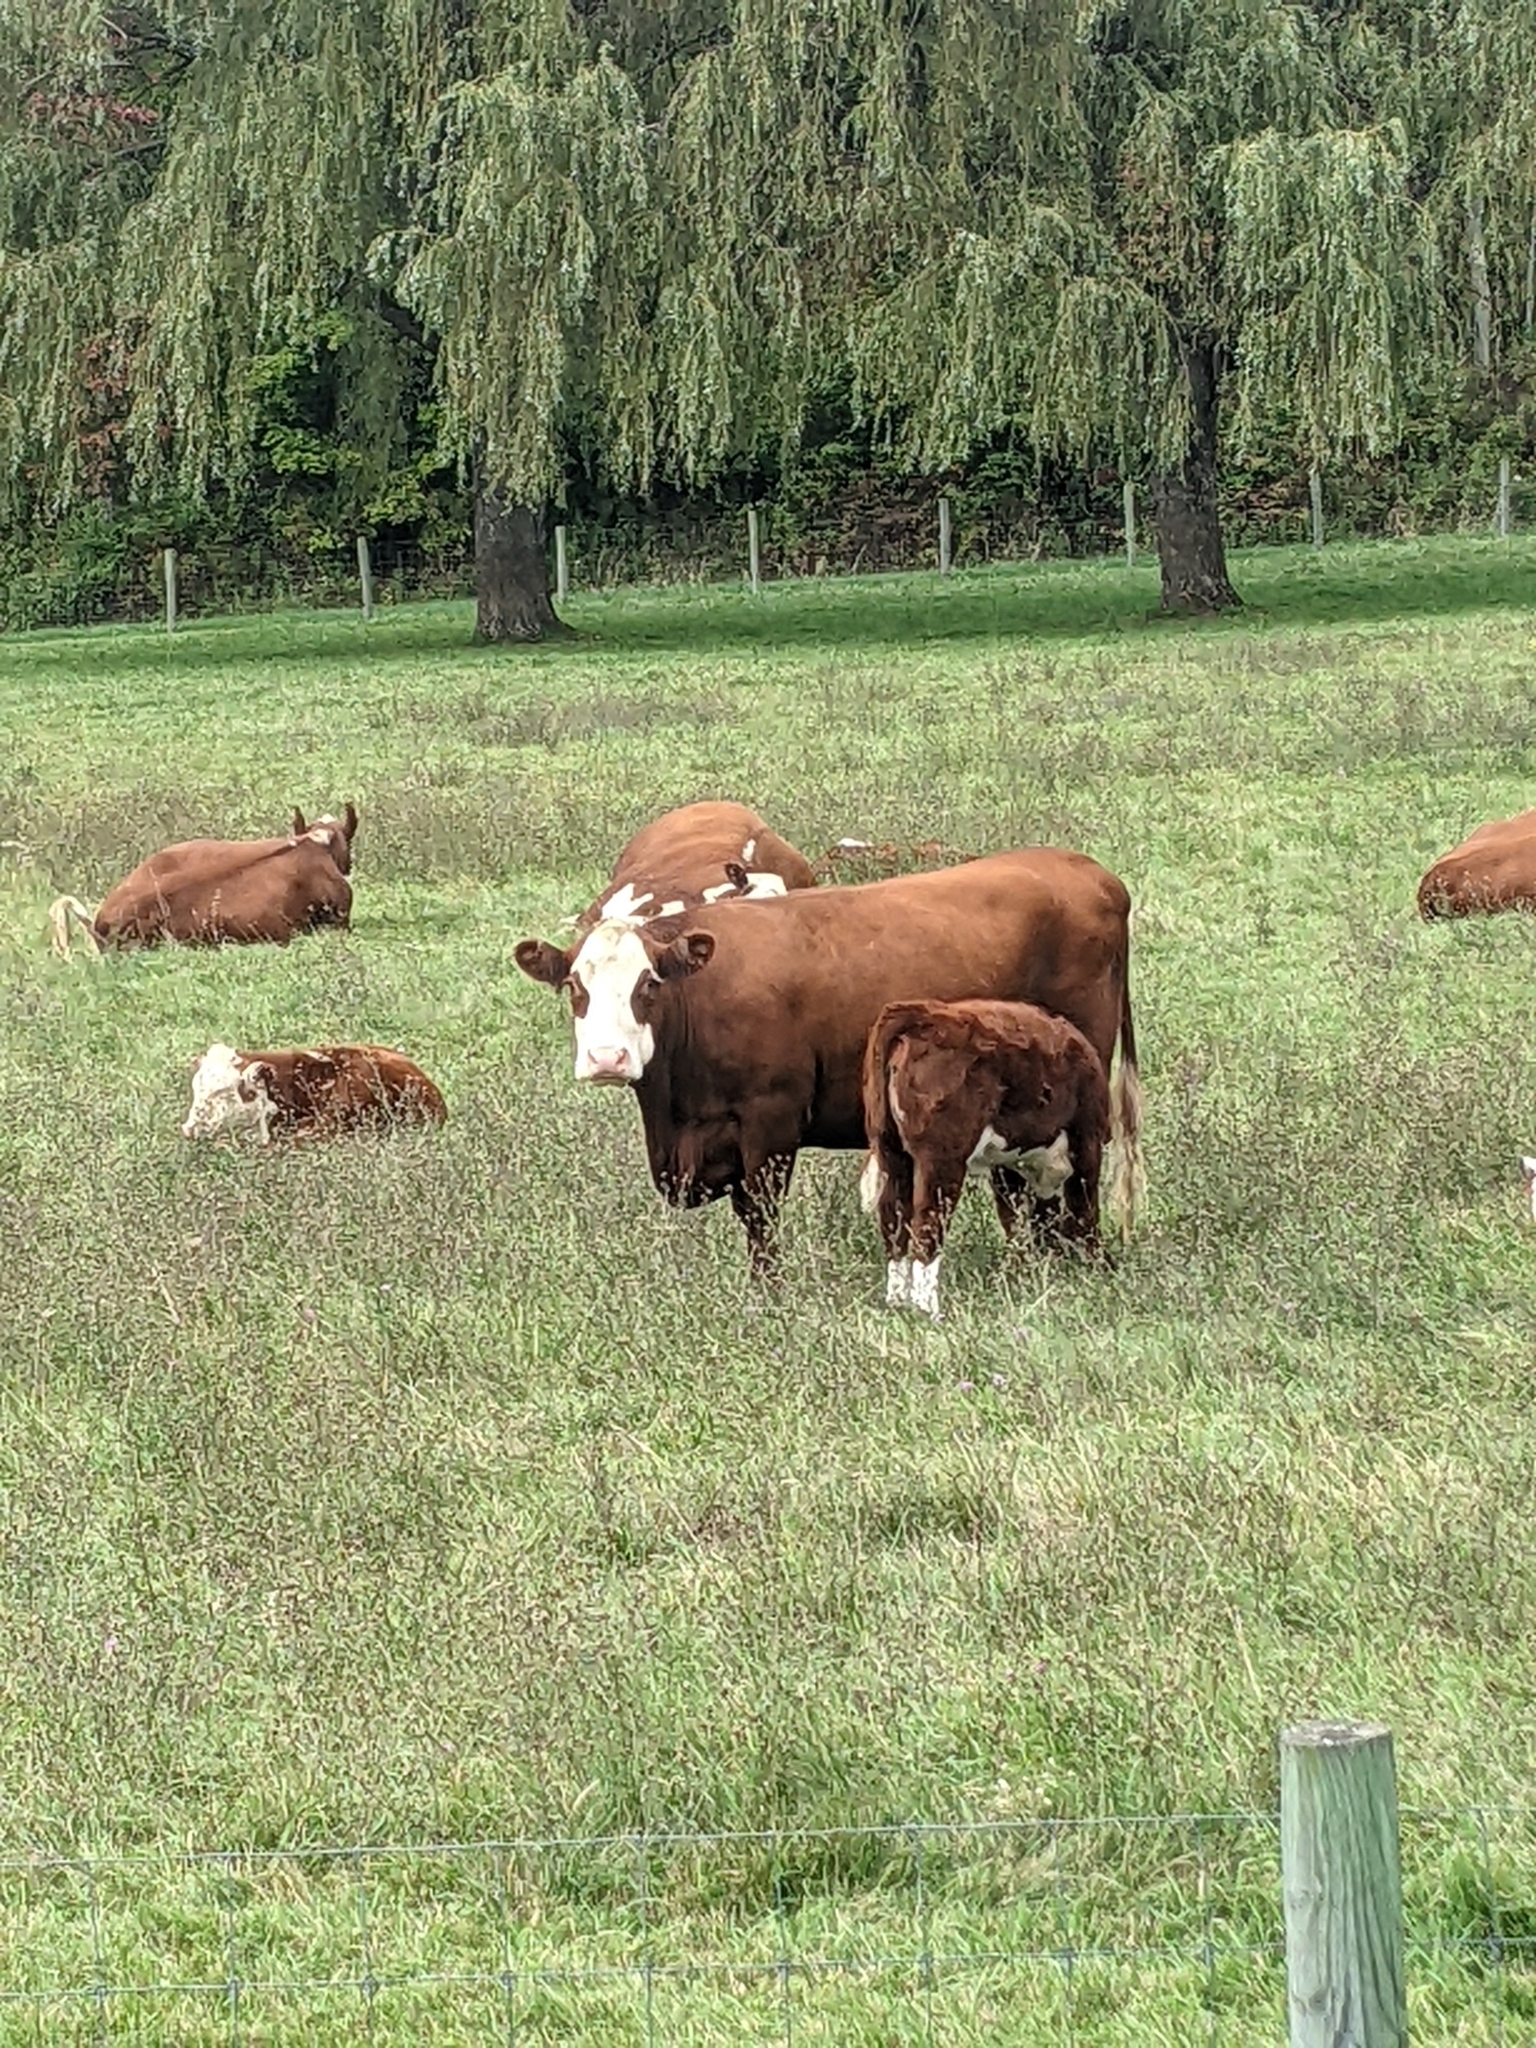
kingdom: Animalia
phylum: Chordata
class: Mammalia
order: Artiodactyla
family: Bovidae
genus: Bos
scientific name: Bos taurus
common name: Domesticated cattle
